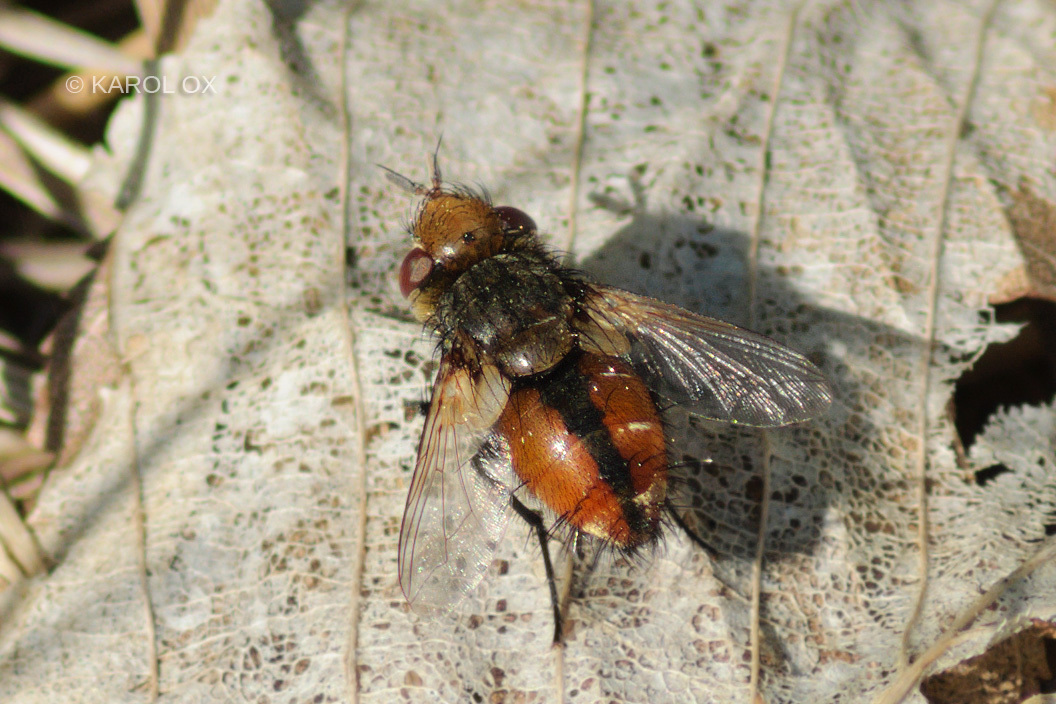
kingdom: Animalia
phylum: Arthropoda
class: Insecta
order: Diptera
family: Tachinidae
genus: Gonia
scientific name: Gonia vacua
